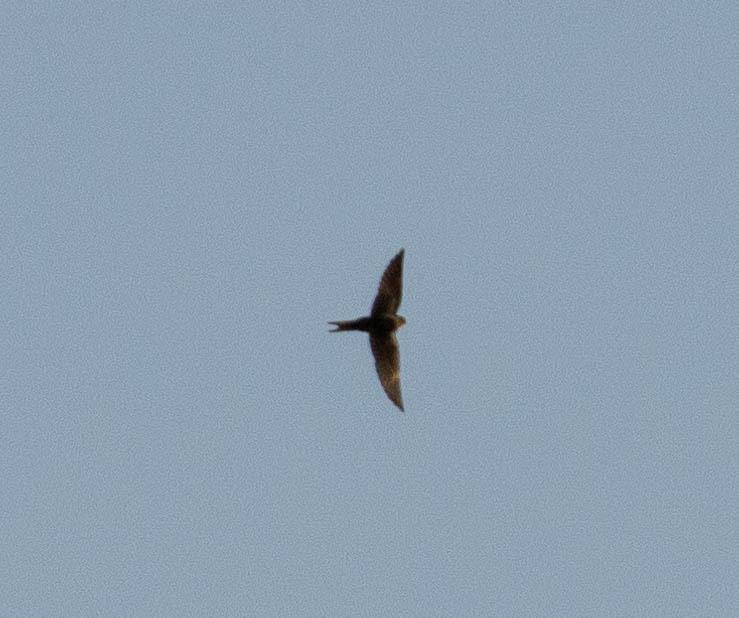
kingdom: Animalia
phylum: Chordata
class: Aves
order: Passeriformes
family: Hirundinidae
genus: Hirundo
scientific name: Hirundo rustica
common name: Barn swallow
